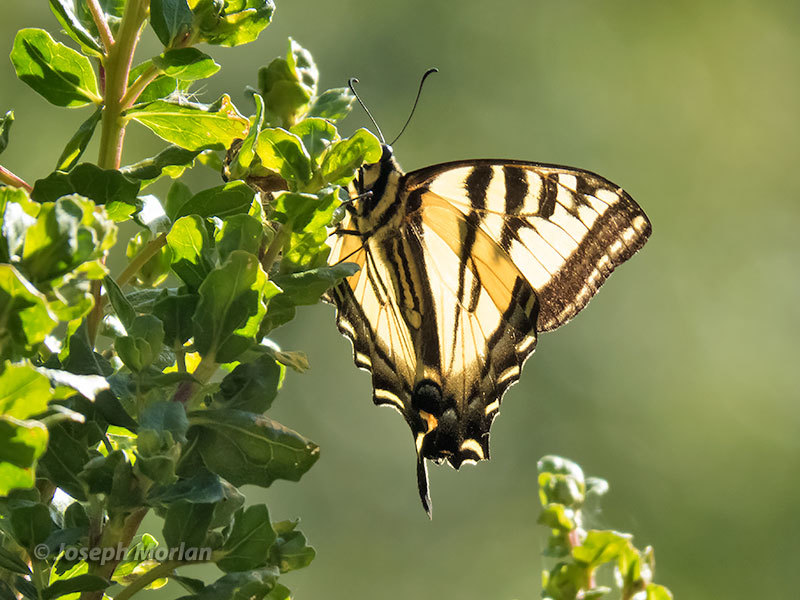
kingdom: Animalia
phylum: Arthropoda
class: Insecta
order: Lepidoptera
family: Papilionidae
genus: Papilio
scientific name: Papilio rutulus
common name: Western tiger swallowtail
